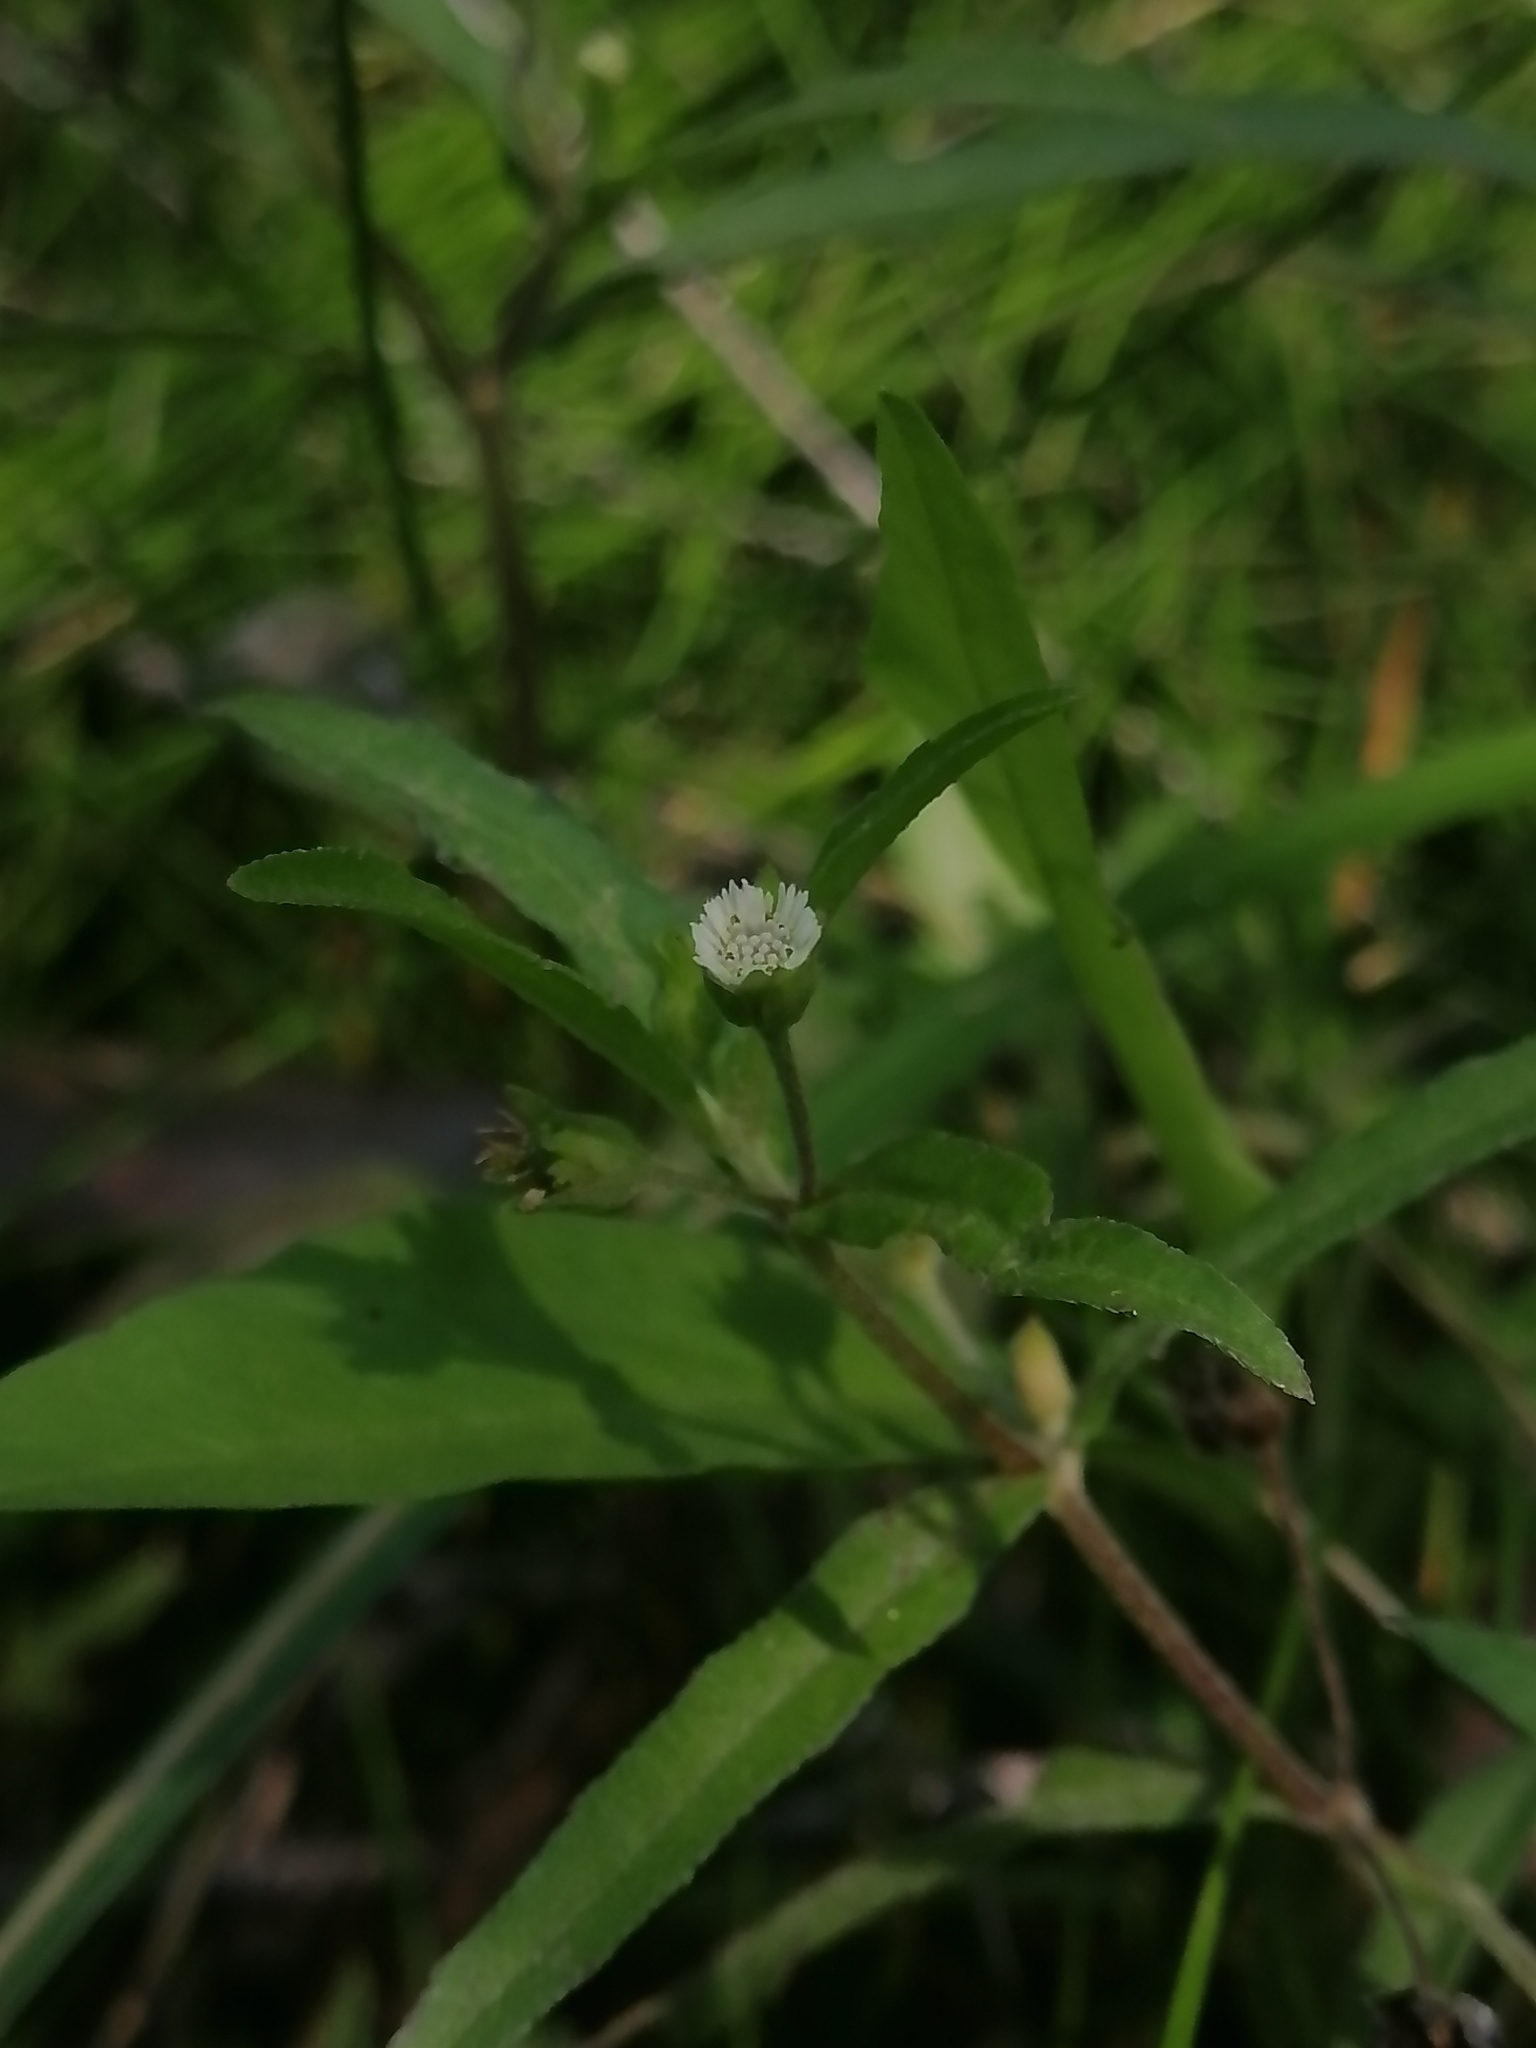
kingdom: Plantae
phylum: Tracheophyta
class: Magnoliopsida
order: Asterales
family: Asteraceae
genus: Eclipta
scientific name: Eclipta prostrata
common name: False daisy
